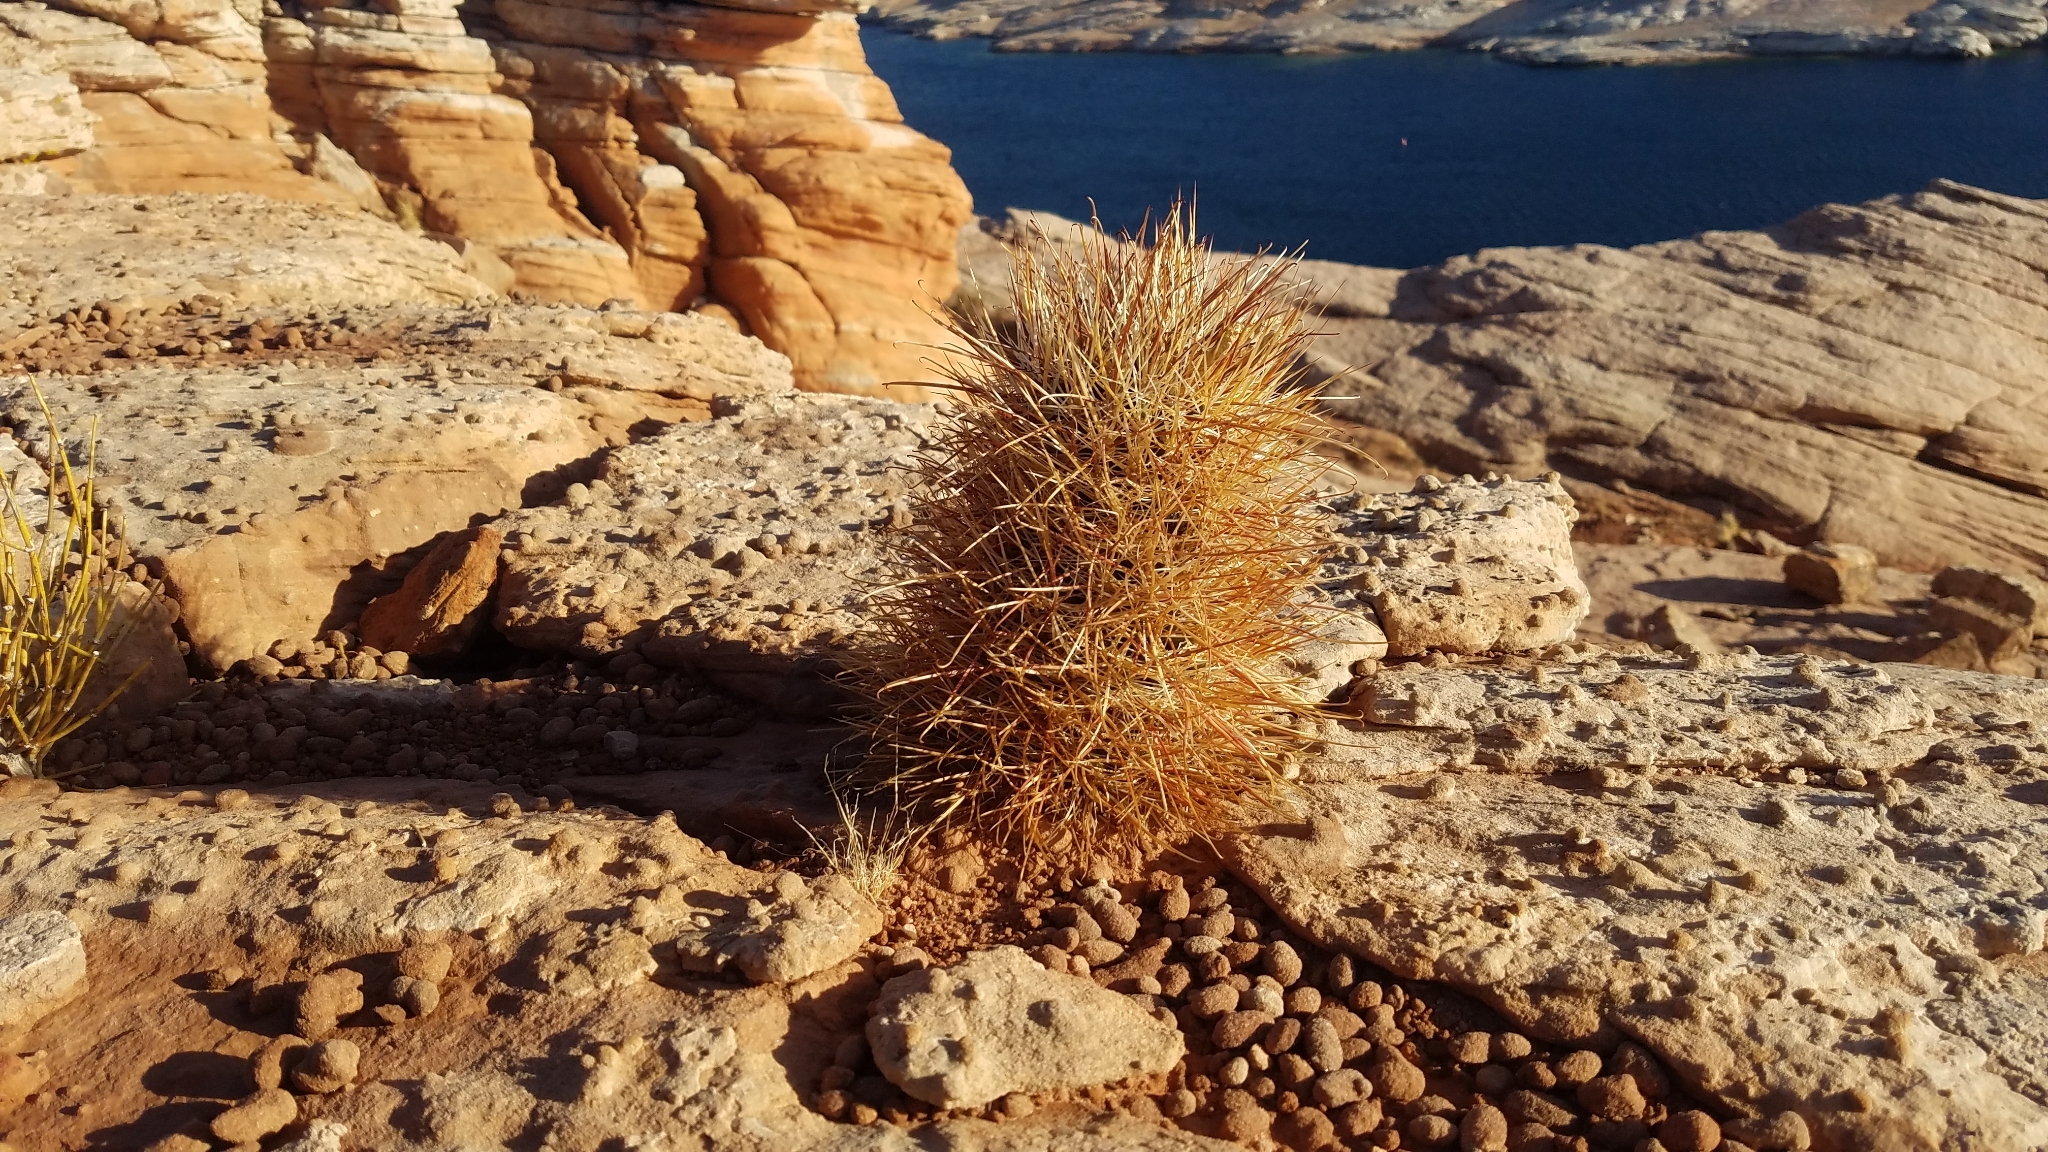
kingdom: Plantae
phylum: Tracheophyta
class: Magnoliopsida
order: Caryophyllales
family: Cactaceae
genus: Sclerocactus
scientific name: Sclerocactus parviflorus
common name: Small-flower fishhook cactus
